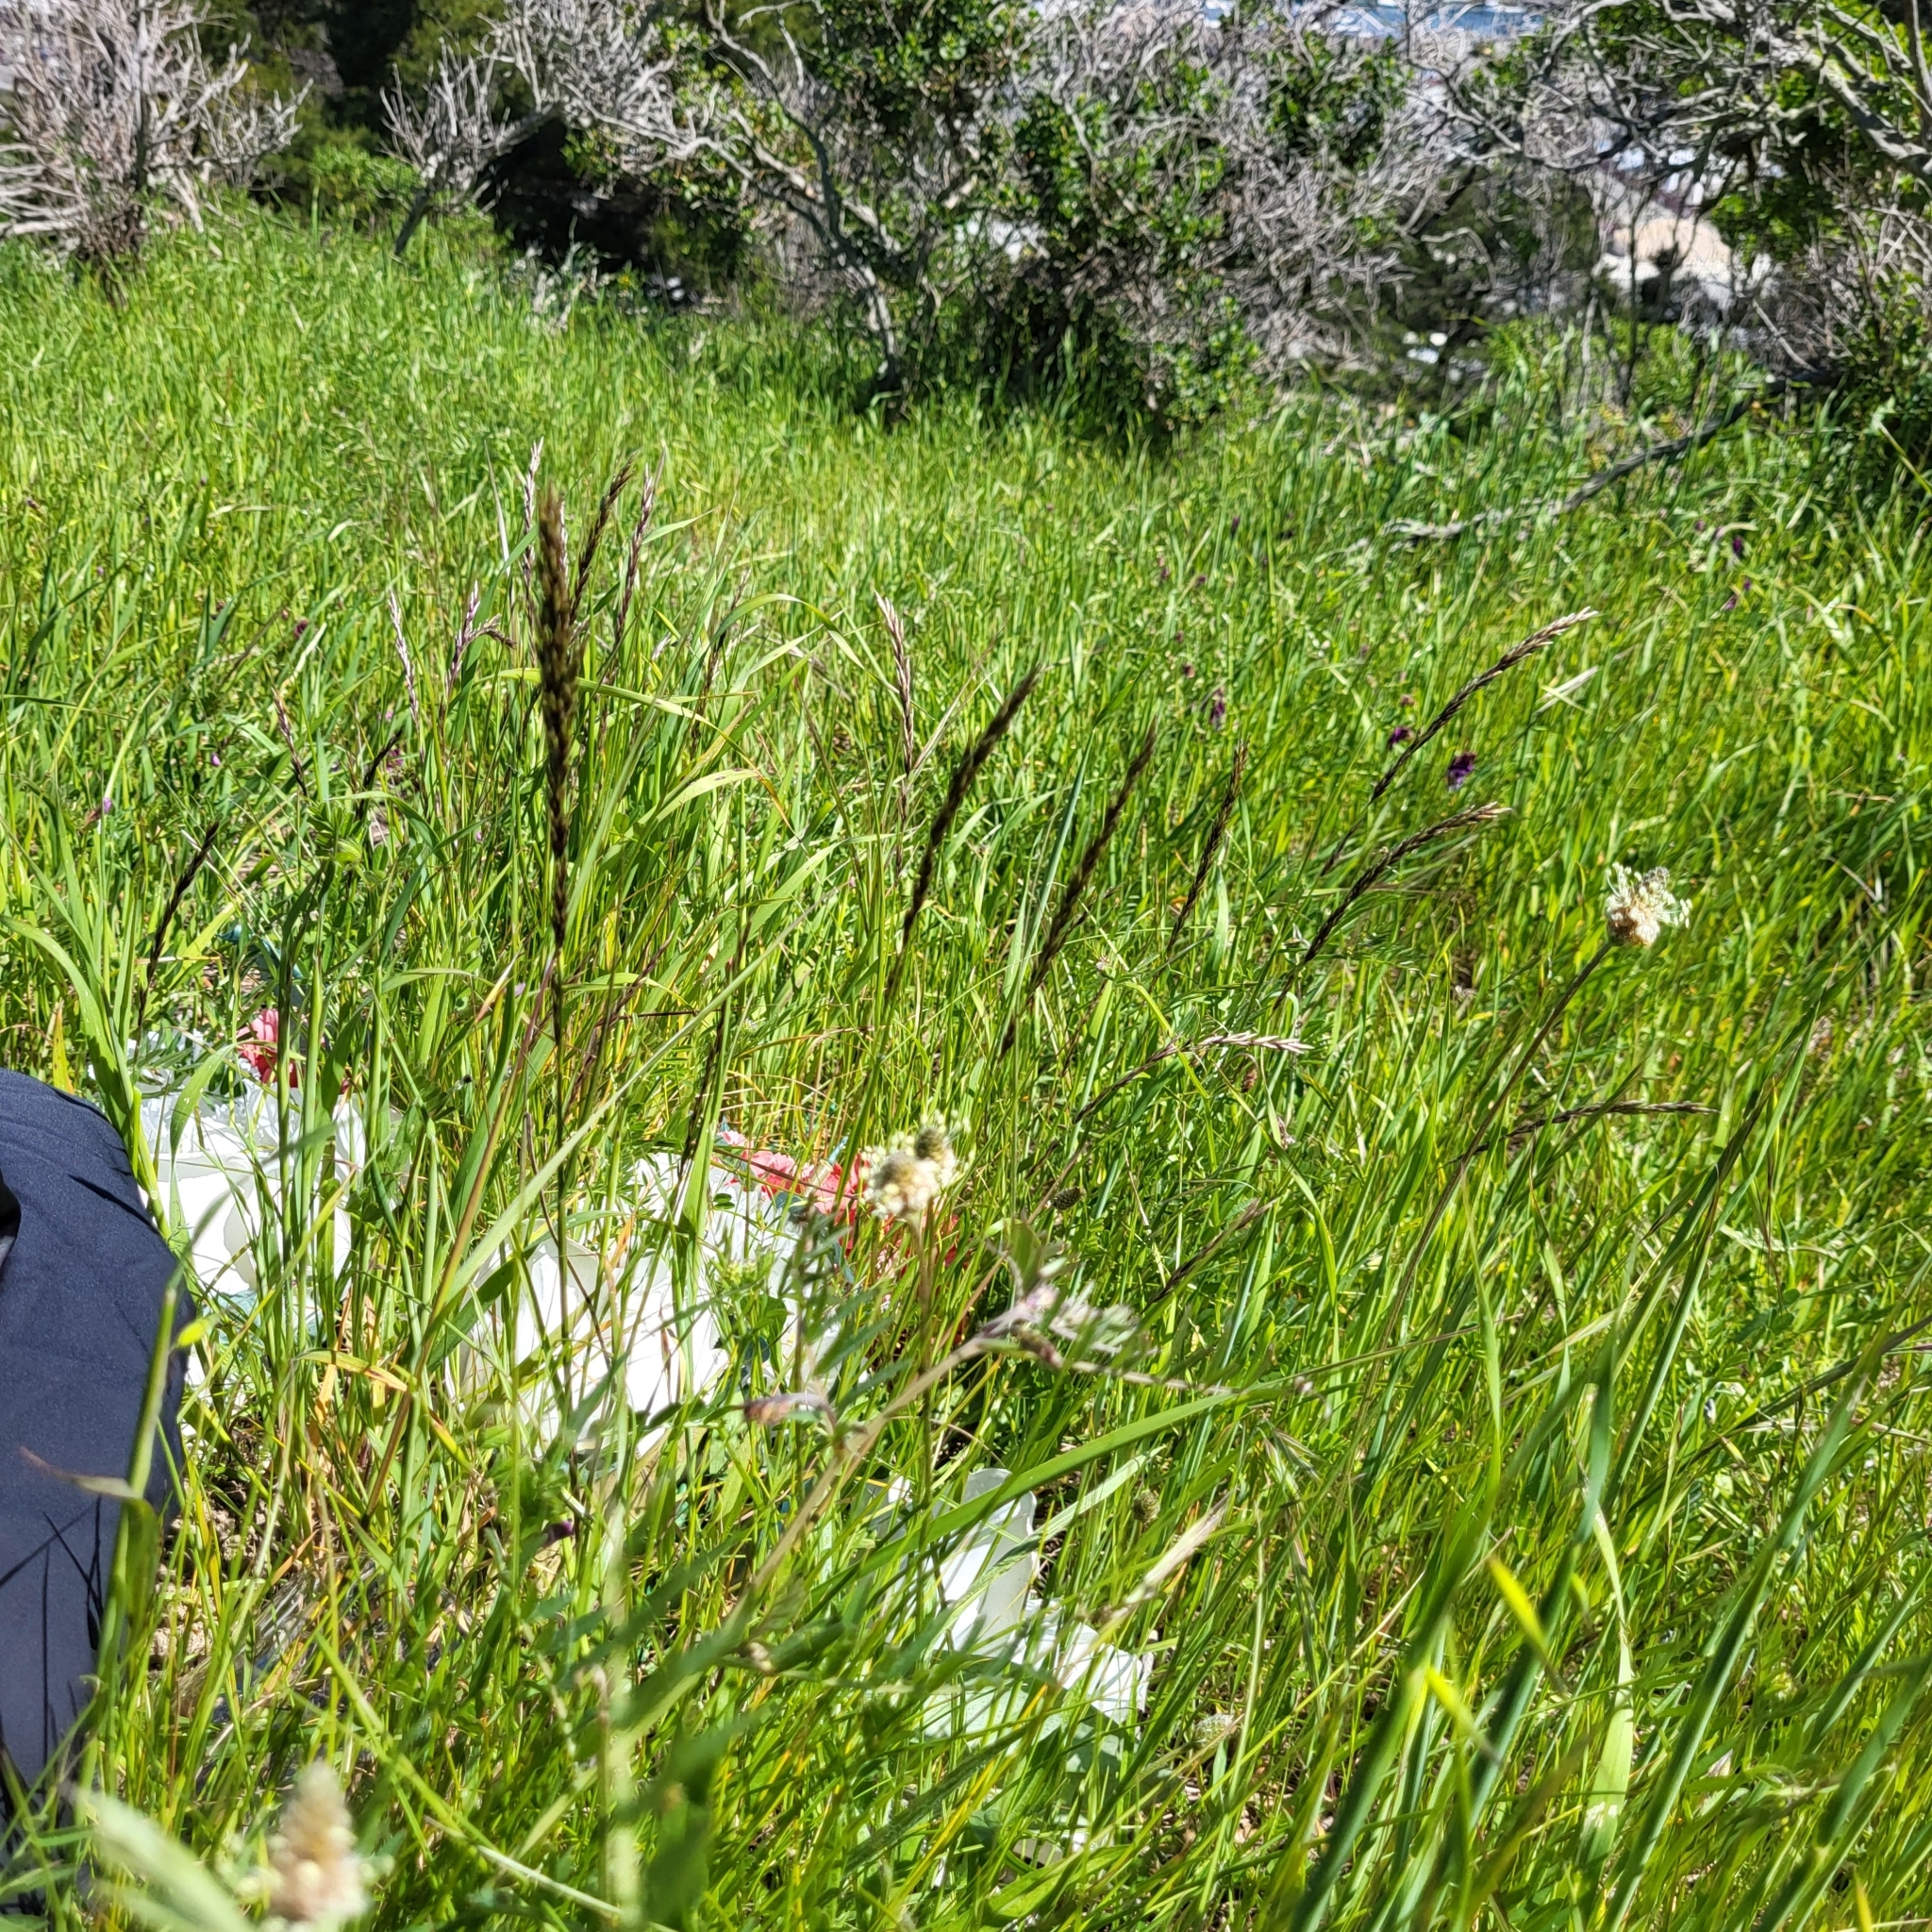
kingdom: Plantae
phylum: Tracheophyta
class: Liliopsida
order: Poales
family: Poaceae
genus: Melica
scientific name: Melica californica
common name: California melic
